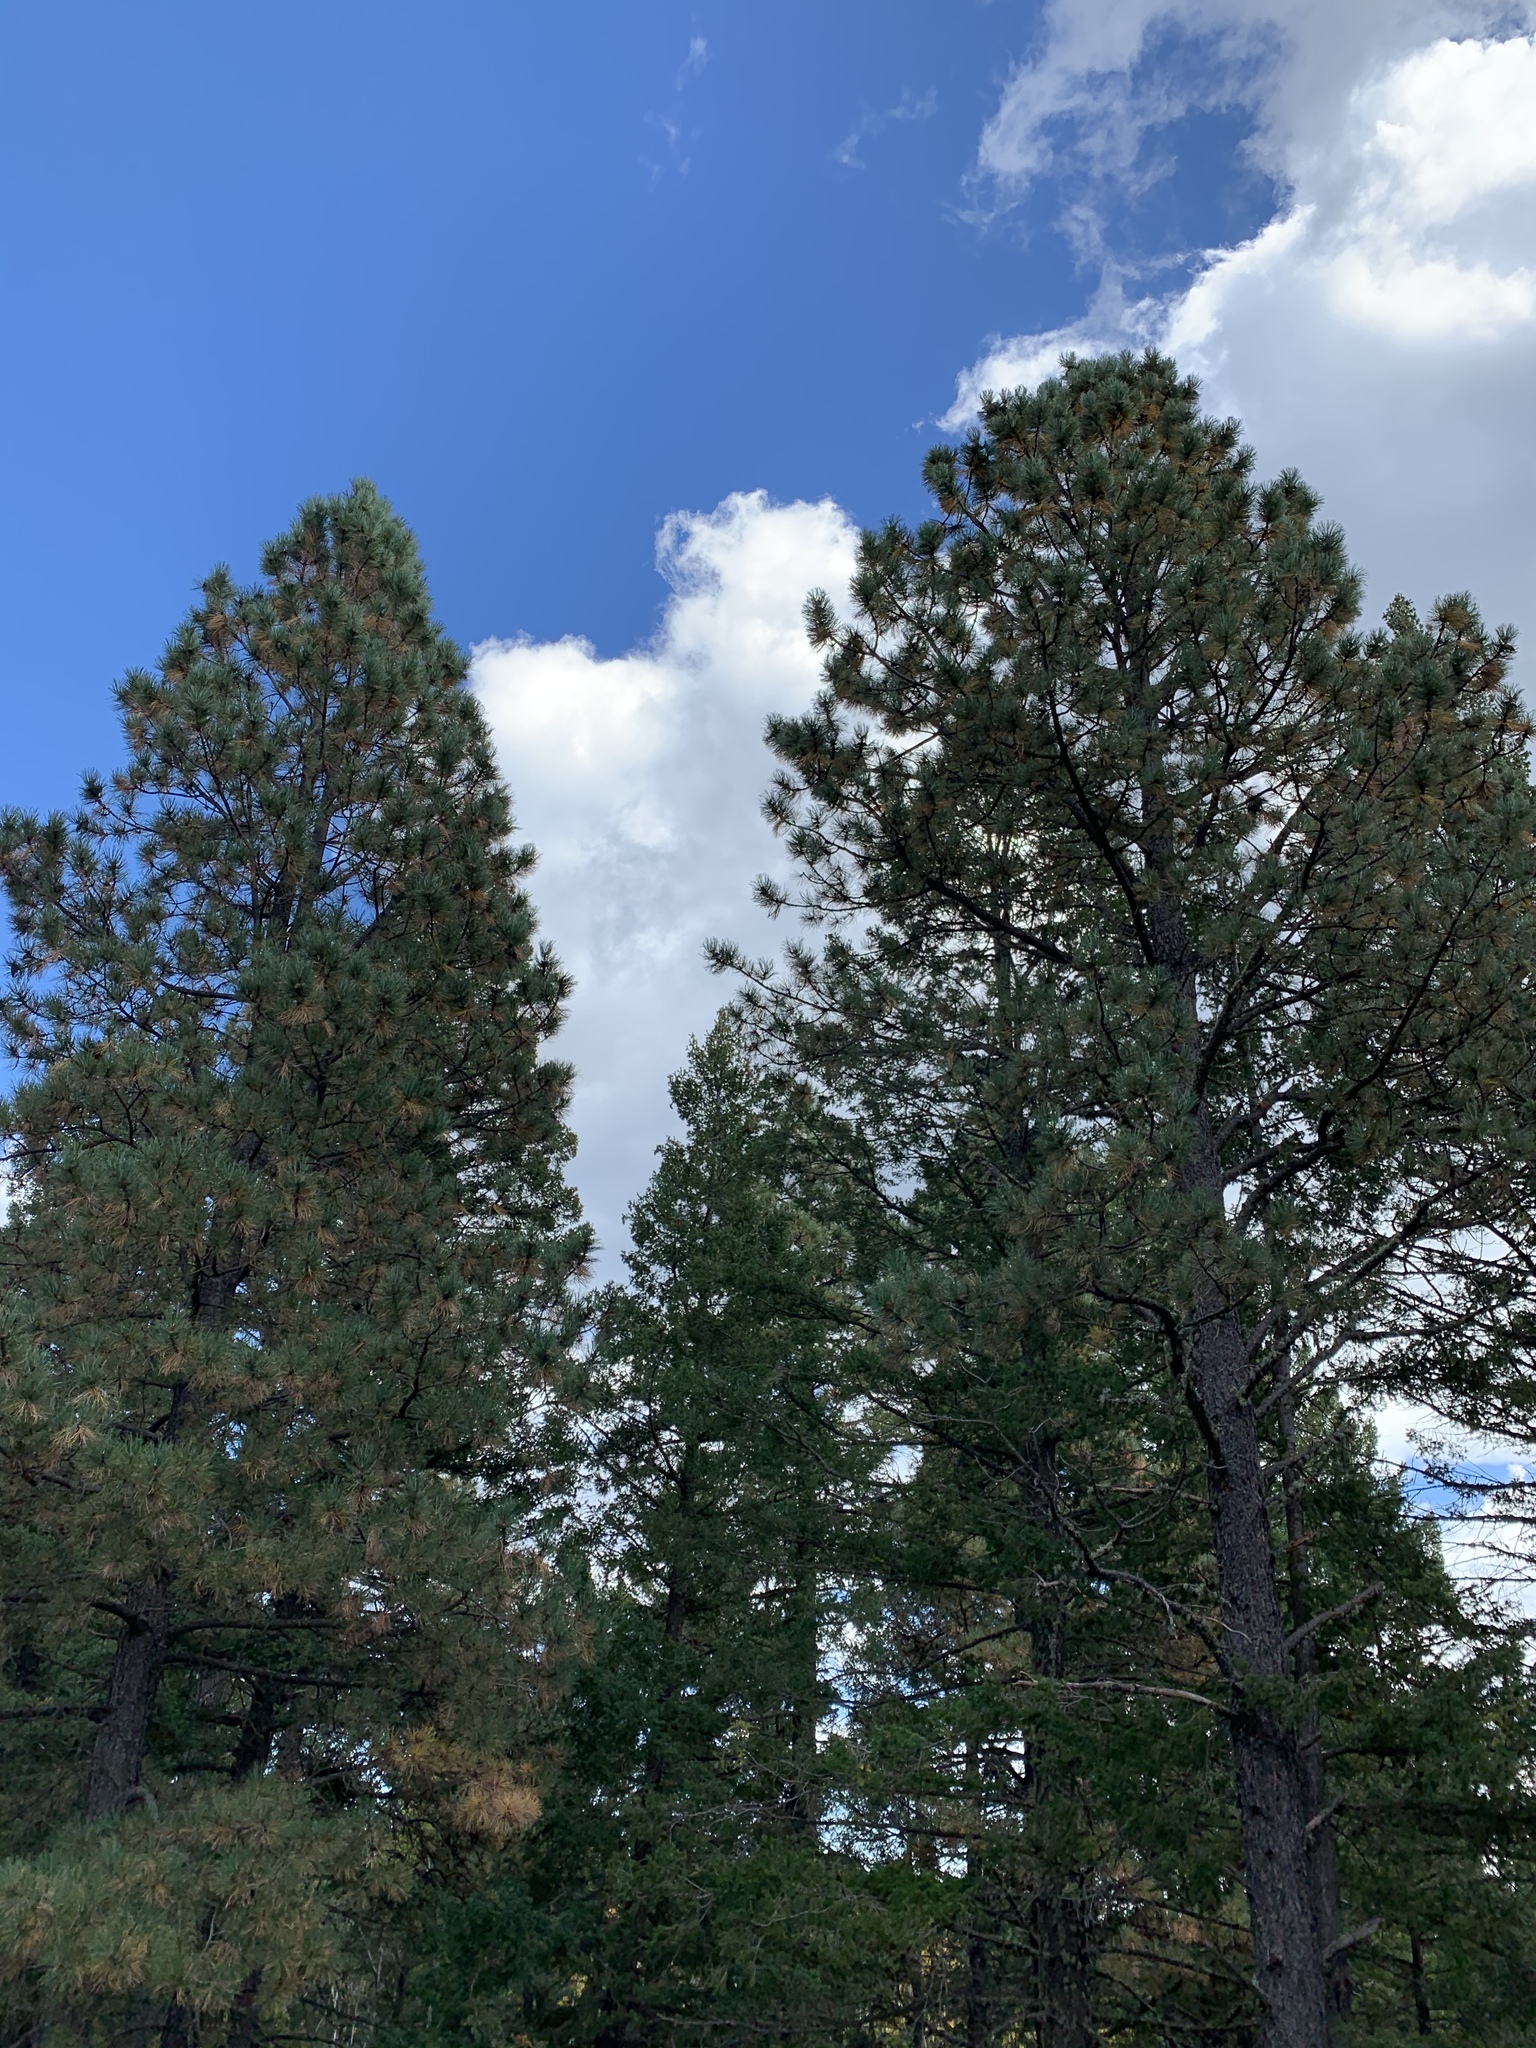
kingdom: Plantae
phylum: Tracheophyta
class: Pinopsida
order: Pinales
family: Pinaceae
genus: Pinus
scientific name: Pinus ponderosa
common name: Western yellow-pine
